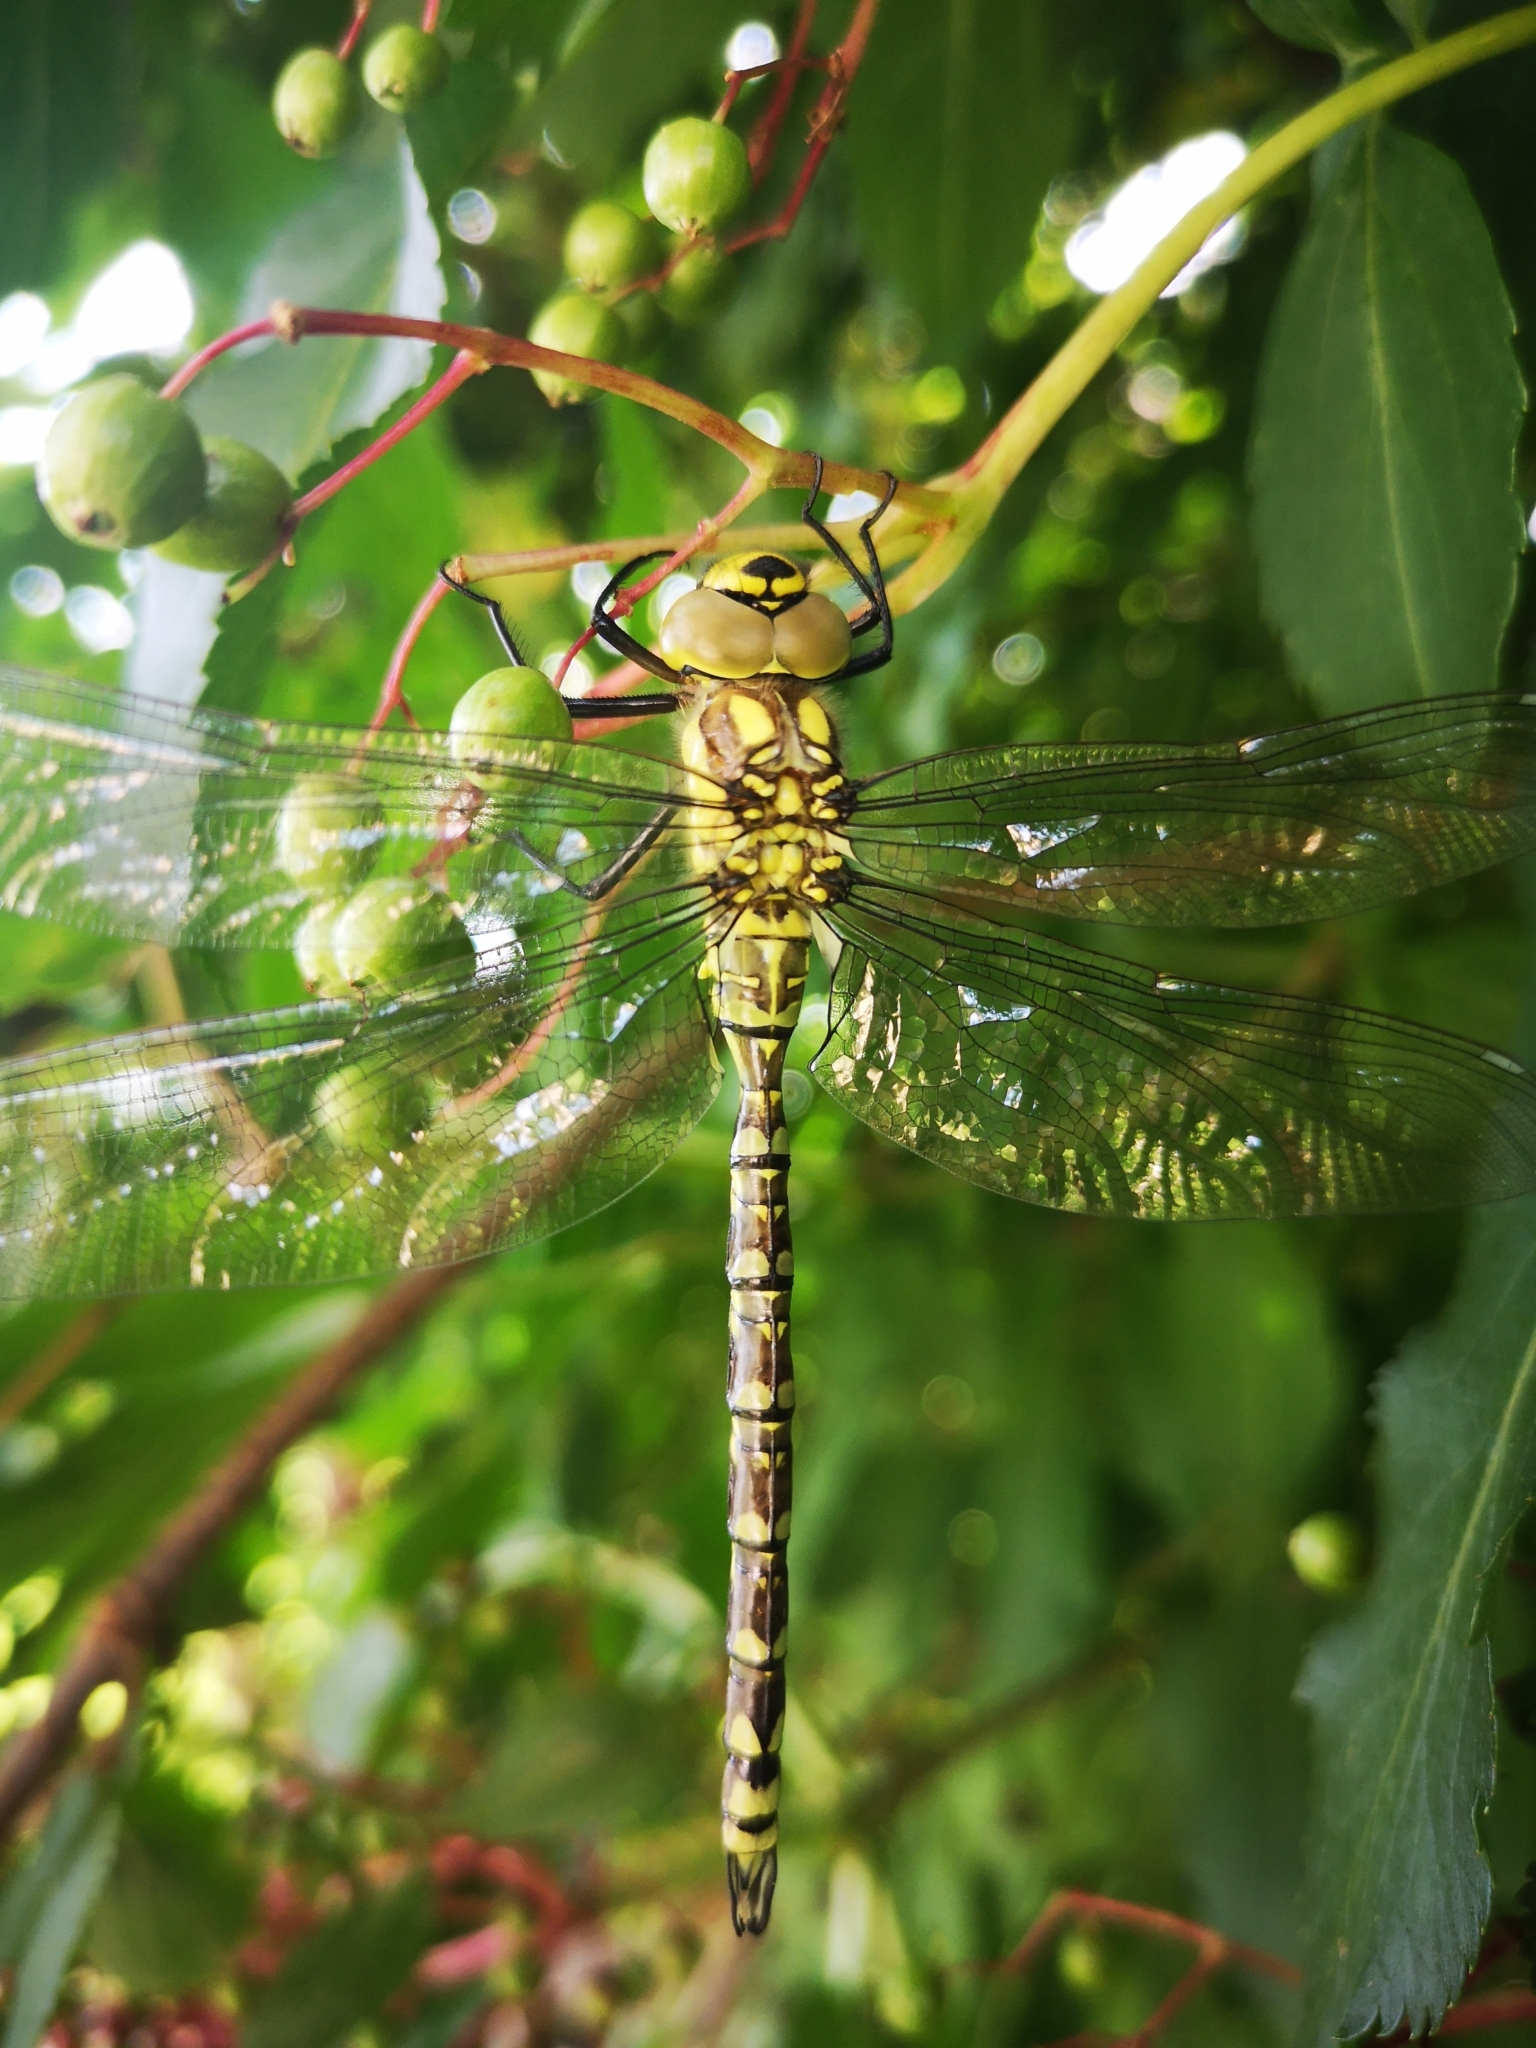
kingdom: Animalia
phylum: Arthropoda
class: Insecta
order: Odonata
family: Aeshnidae
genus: Aeshna
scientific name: Aeshna cyanea
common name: Southern hawker
